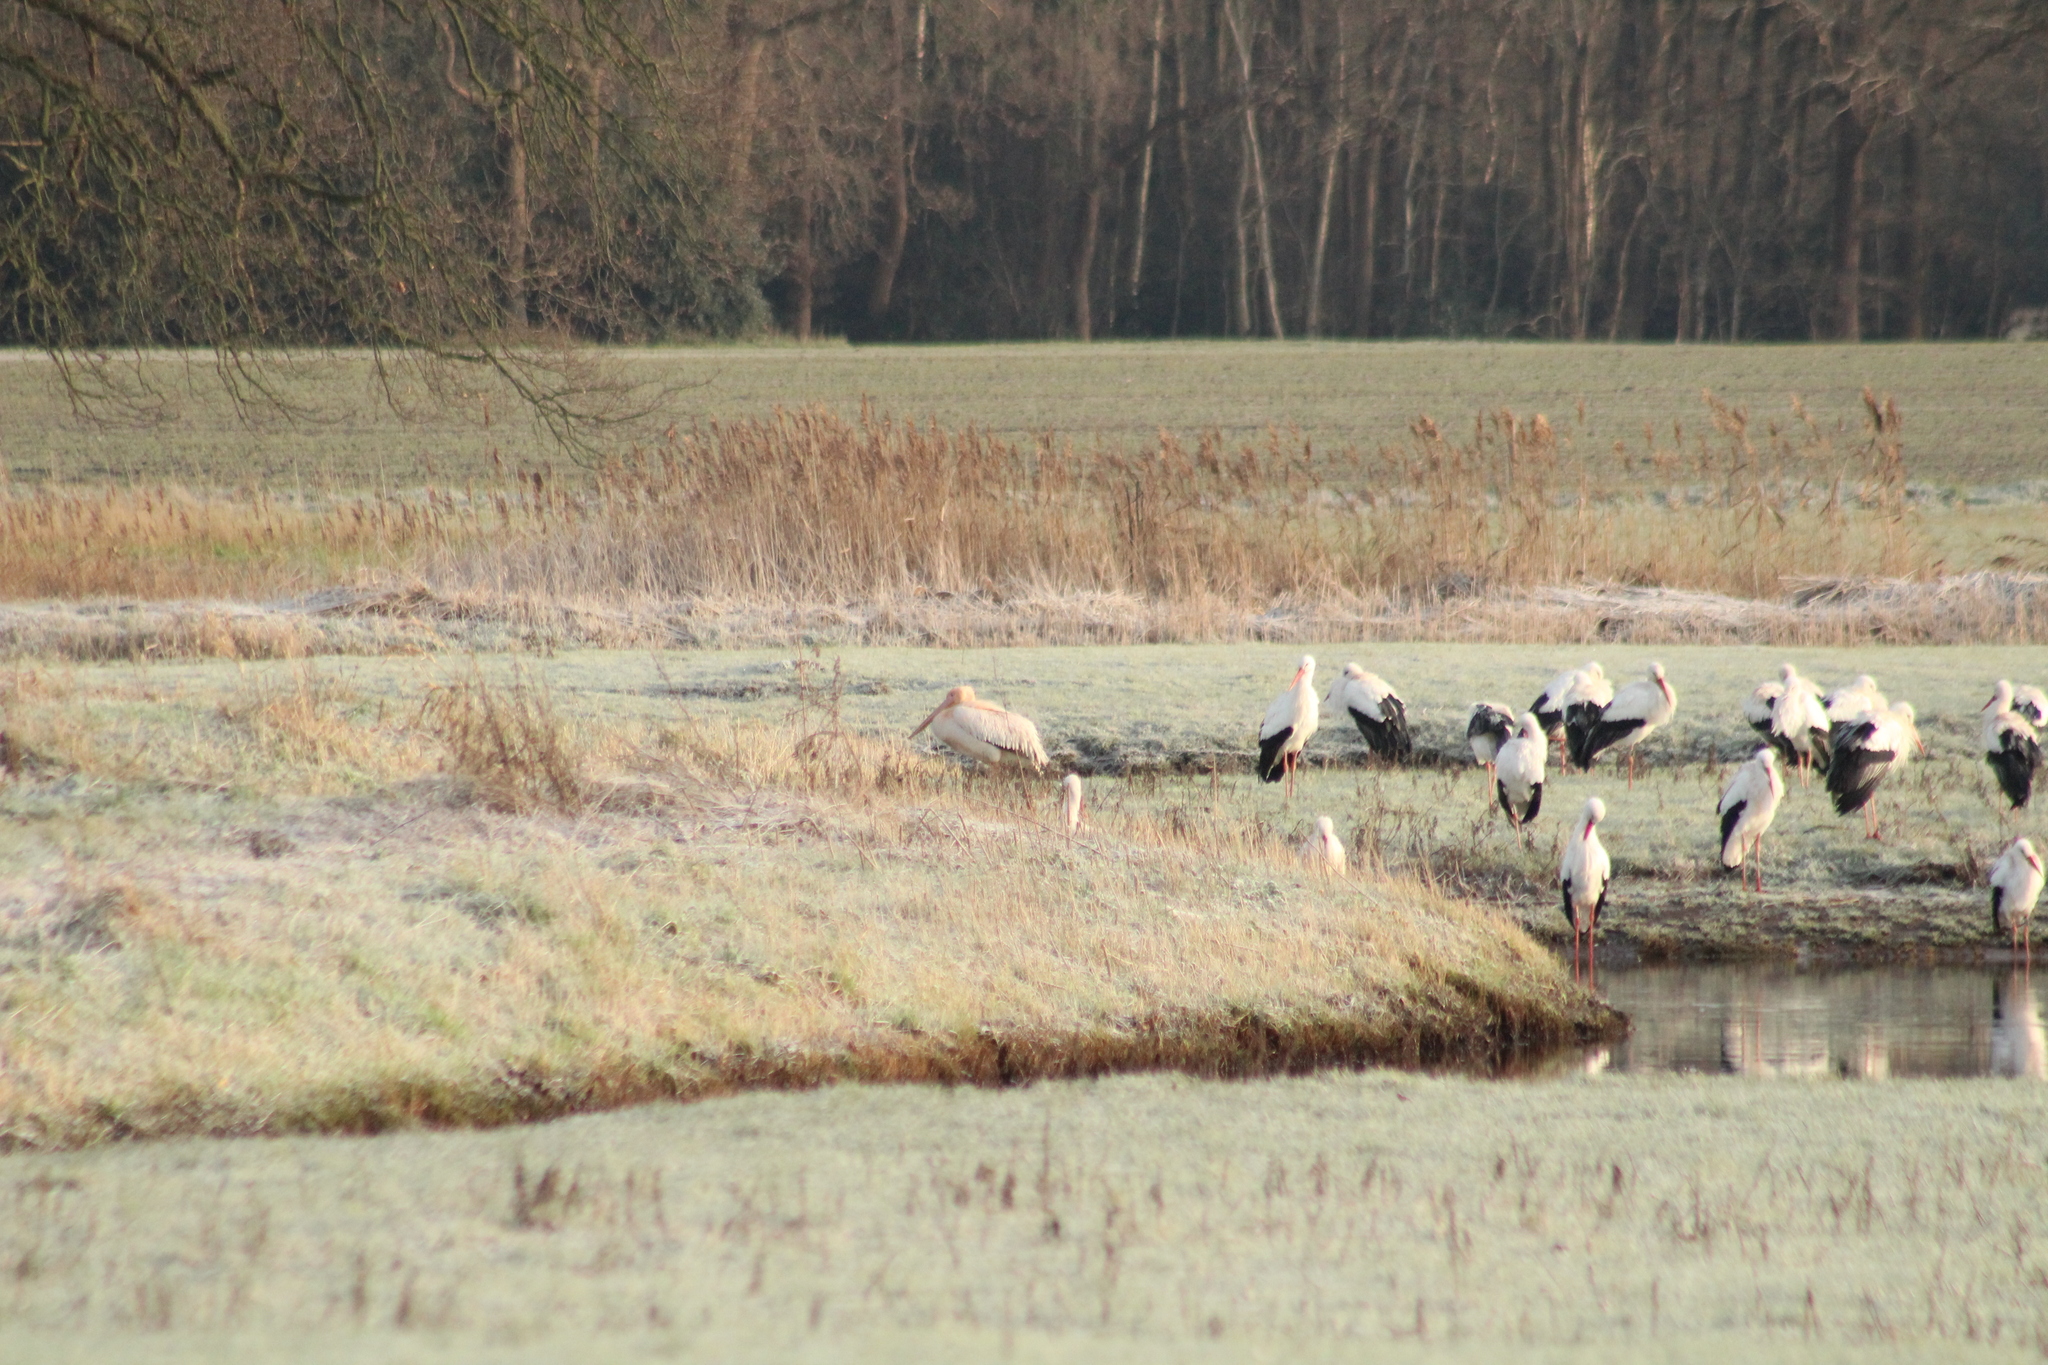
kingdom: Animalia
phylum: Chordata
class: Aves
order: Pelecaniformes
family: Pelecanidae
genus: Pelecanus
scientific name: Pelecanus onocrotalus
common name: Great white pelican
